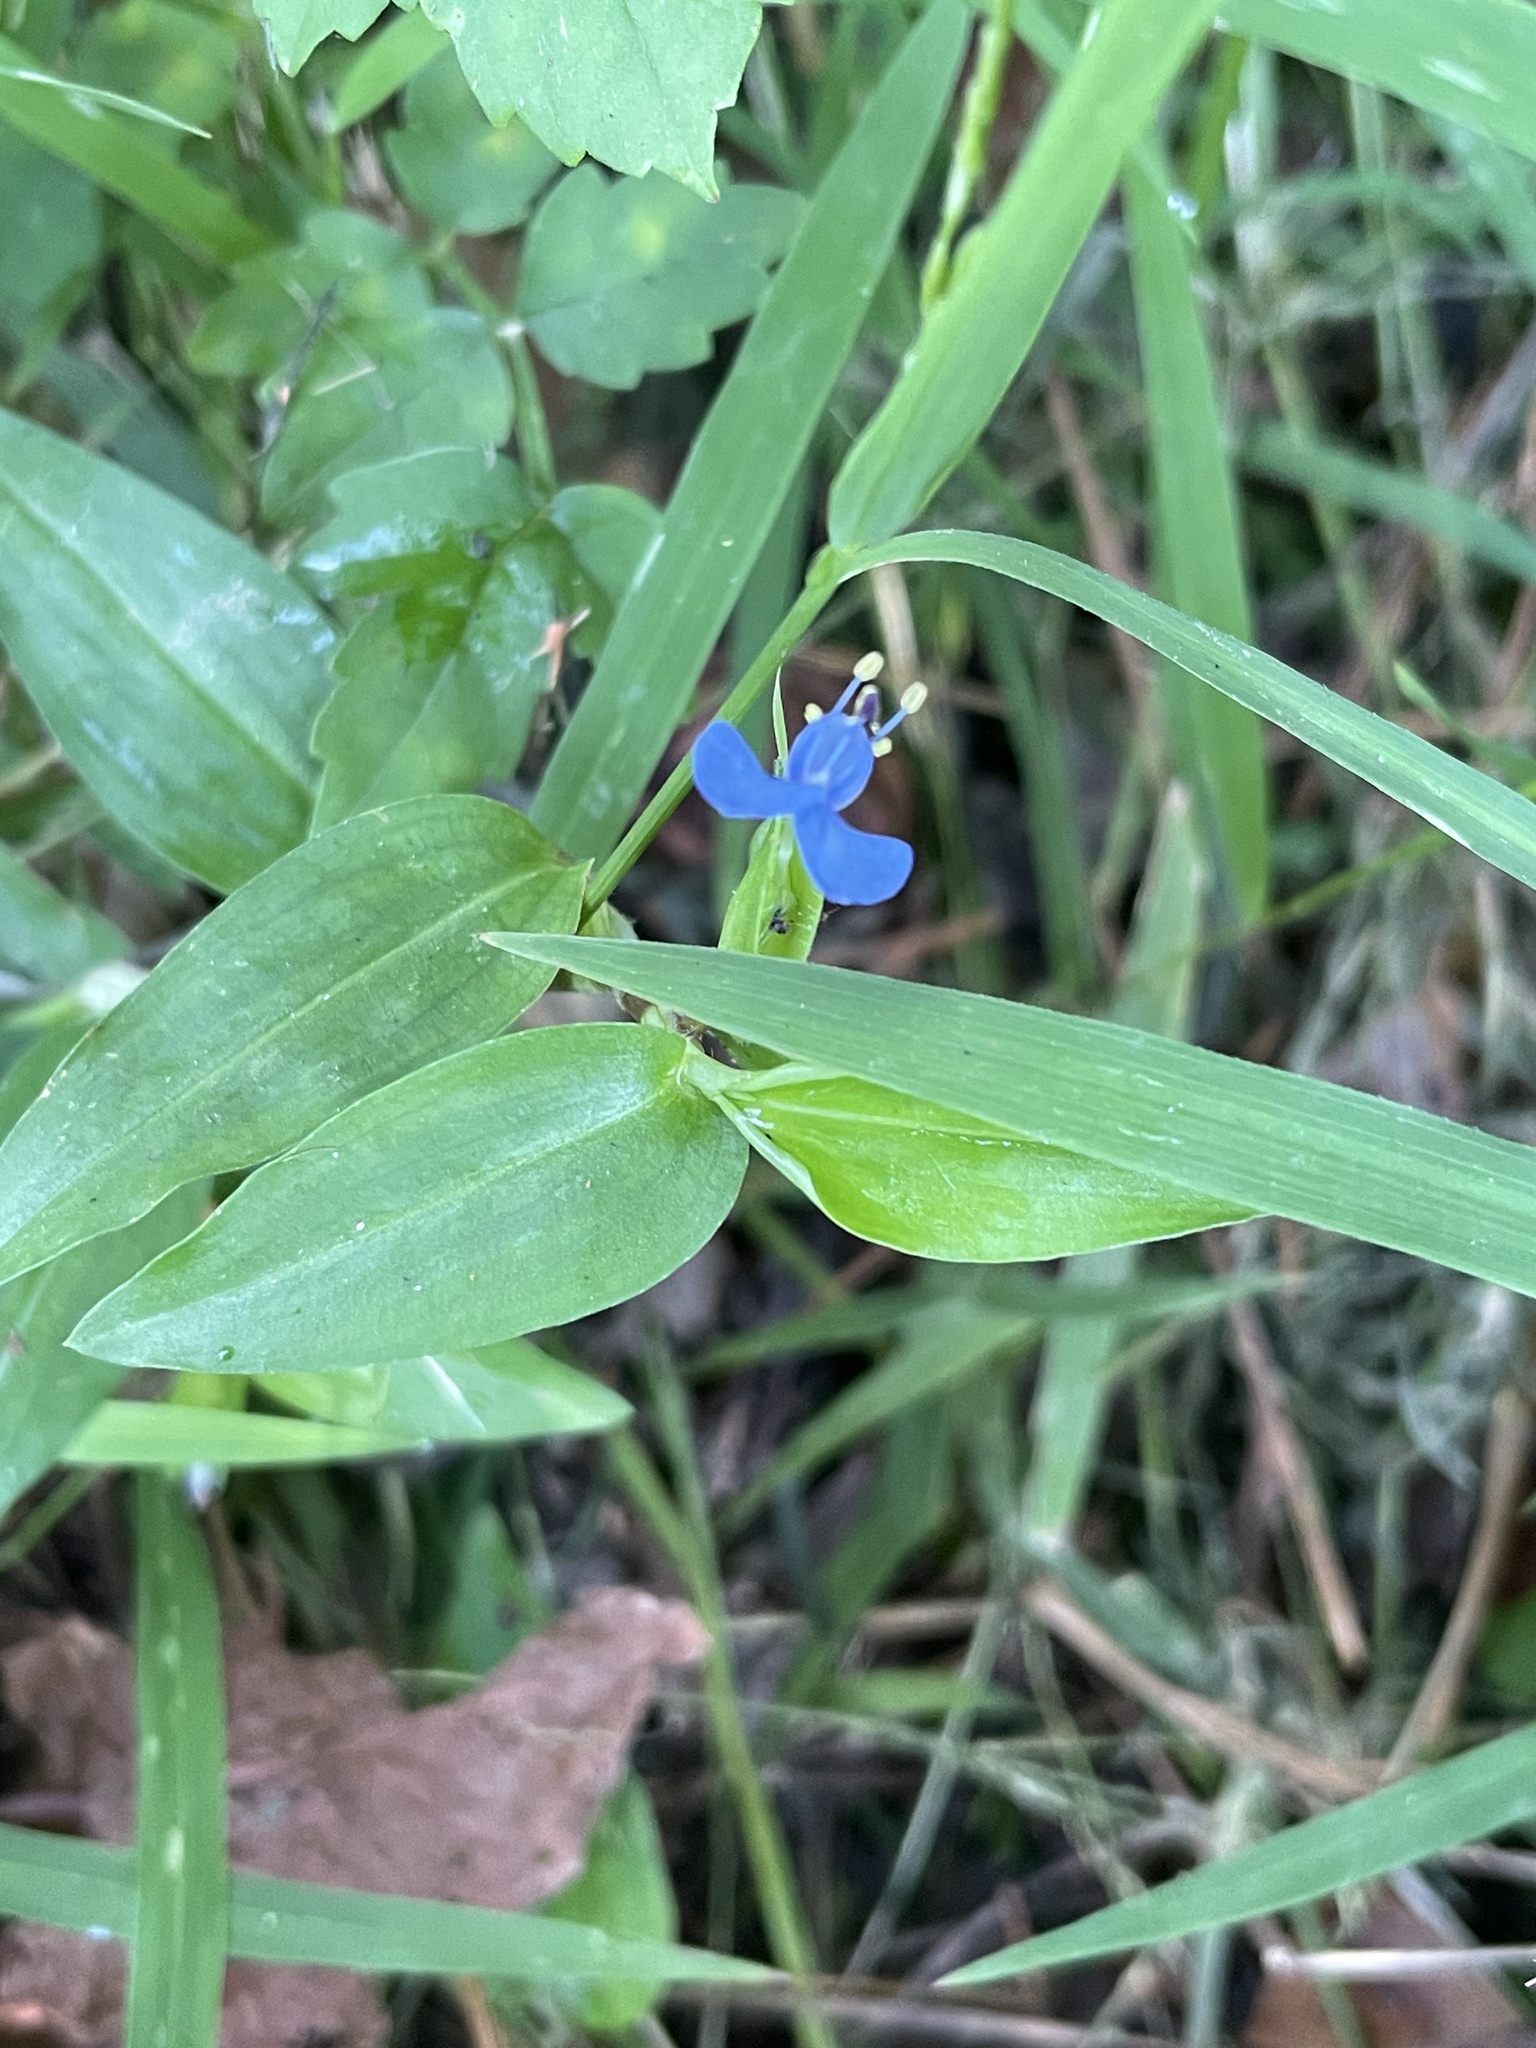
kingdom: Plantae
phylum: Tracheophyta
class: Liliopsida
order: Commelinales
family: Commelinaceae
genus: Commelina
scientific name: Commelina diffusa
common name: Climbing dayflower
